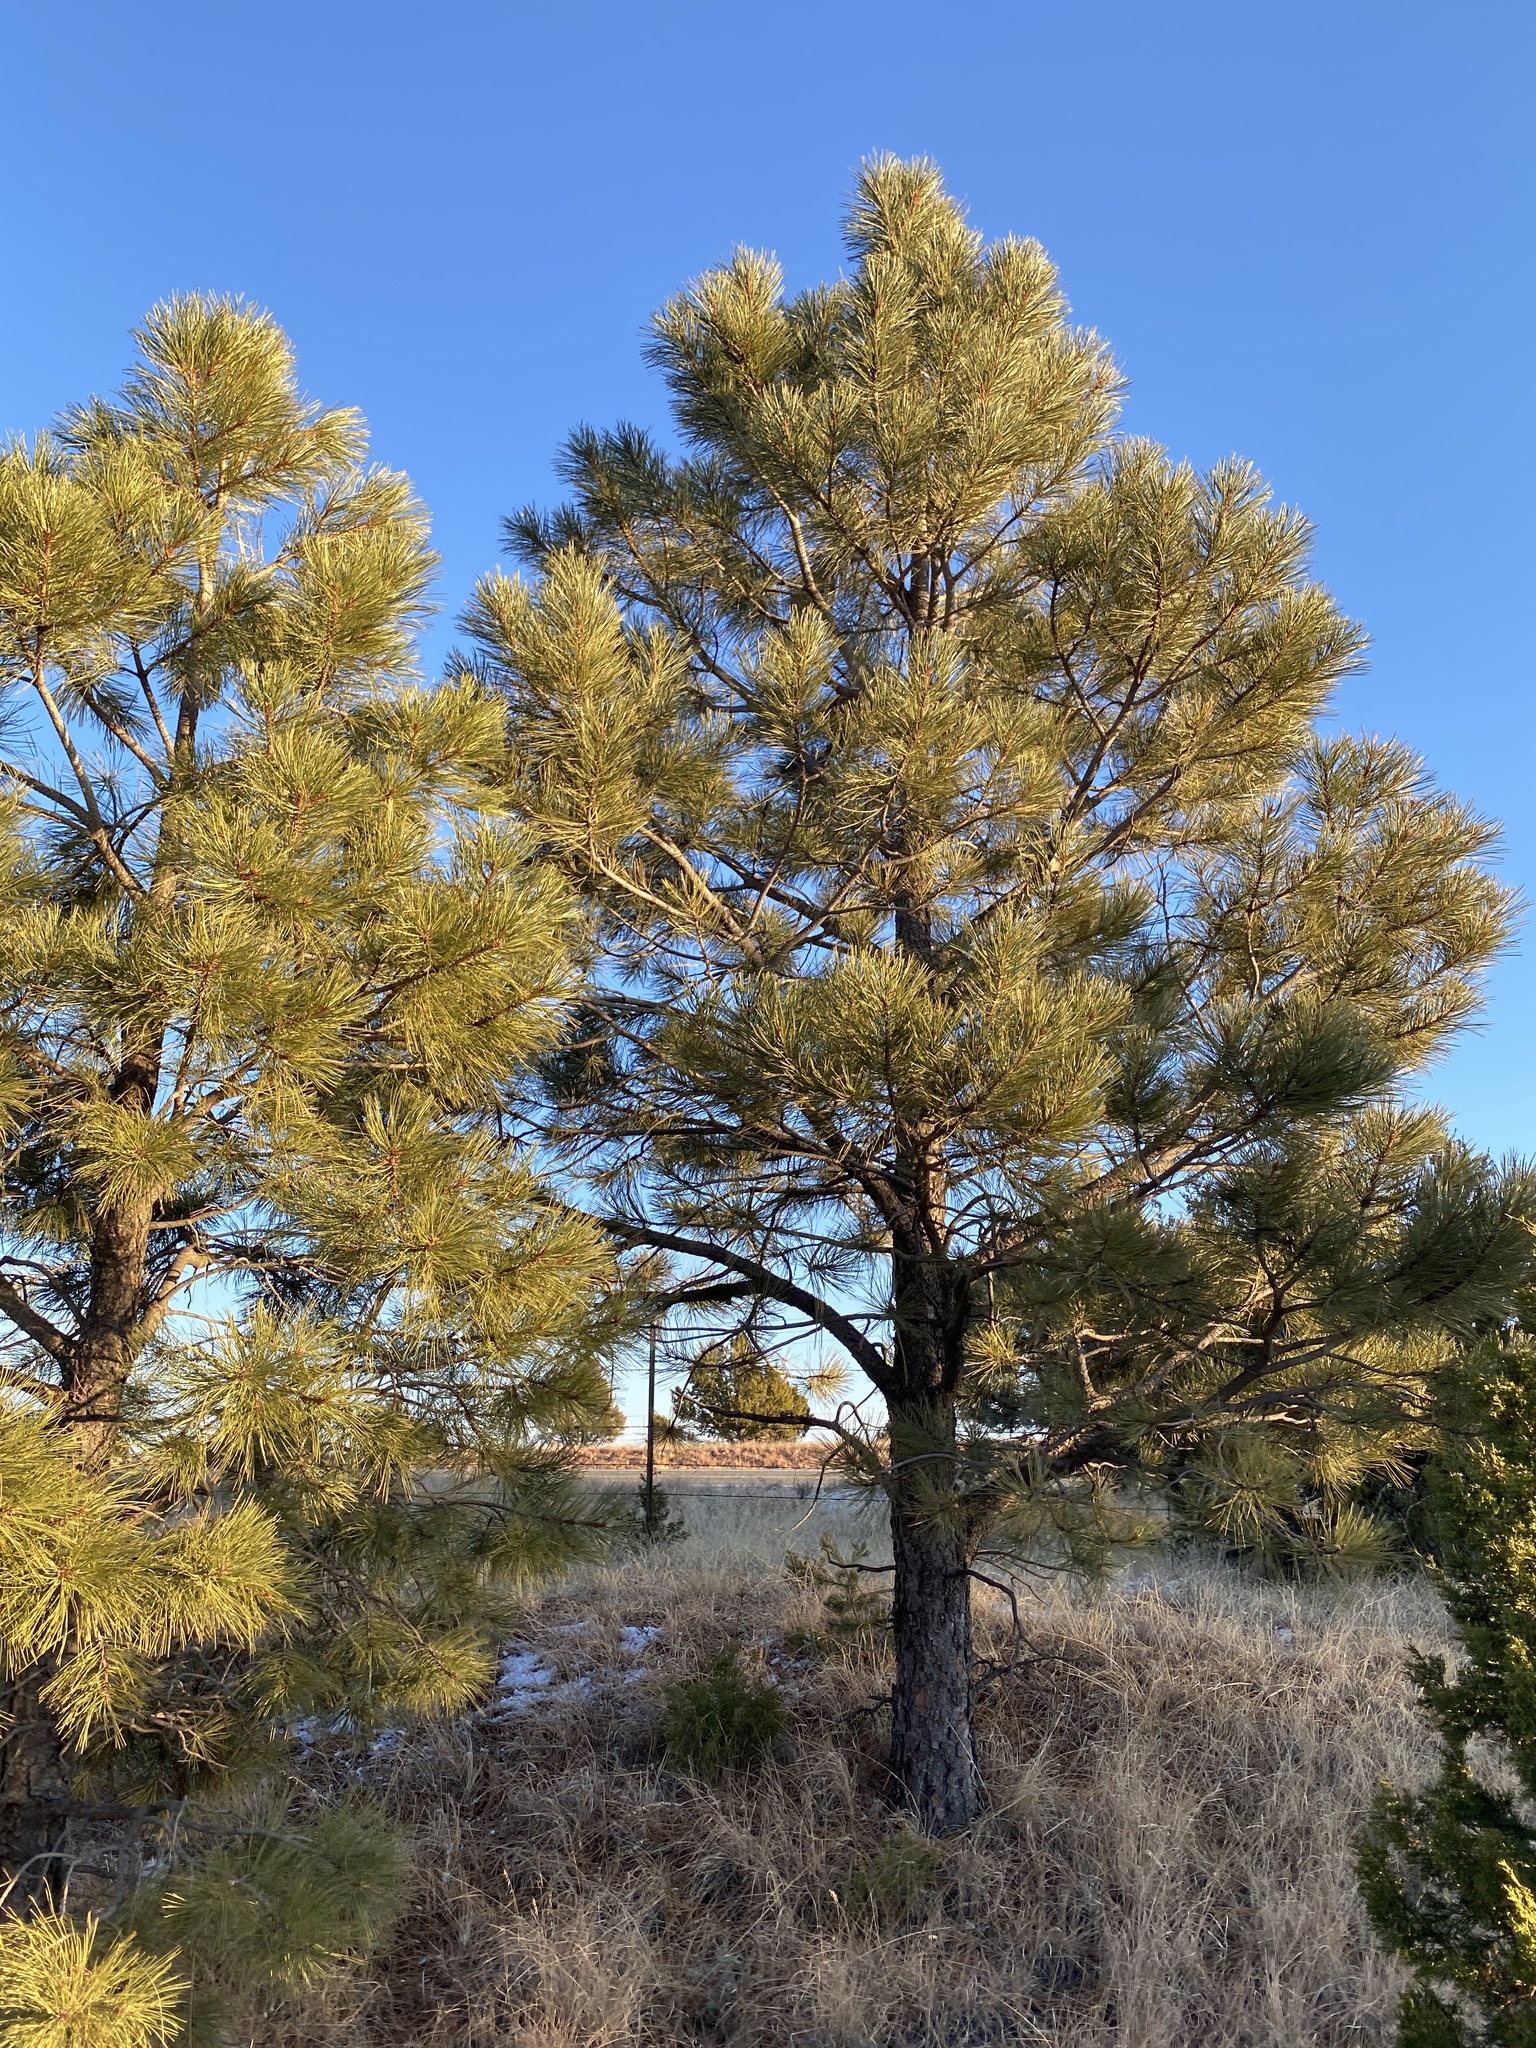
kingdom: Plantae
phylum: Tracheophyta
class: Pinopsida
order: Pinales
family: Pinaceae
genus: Pinus
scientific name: Pinus ponderosa
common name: Western yellow-pine
